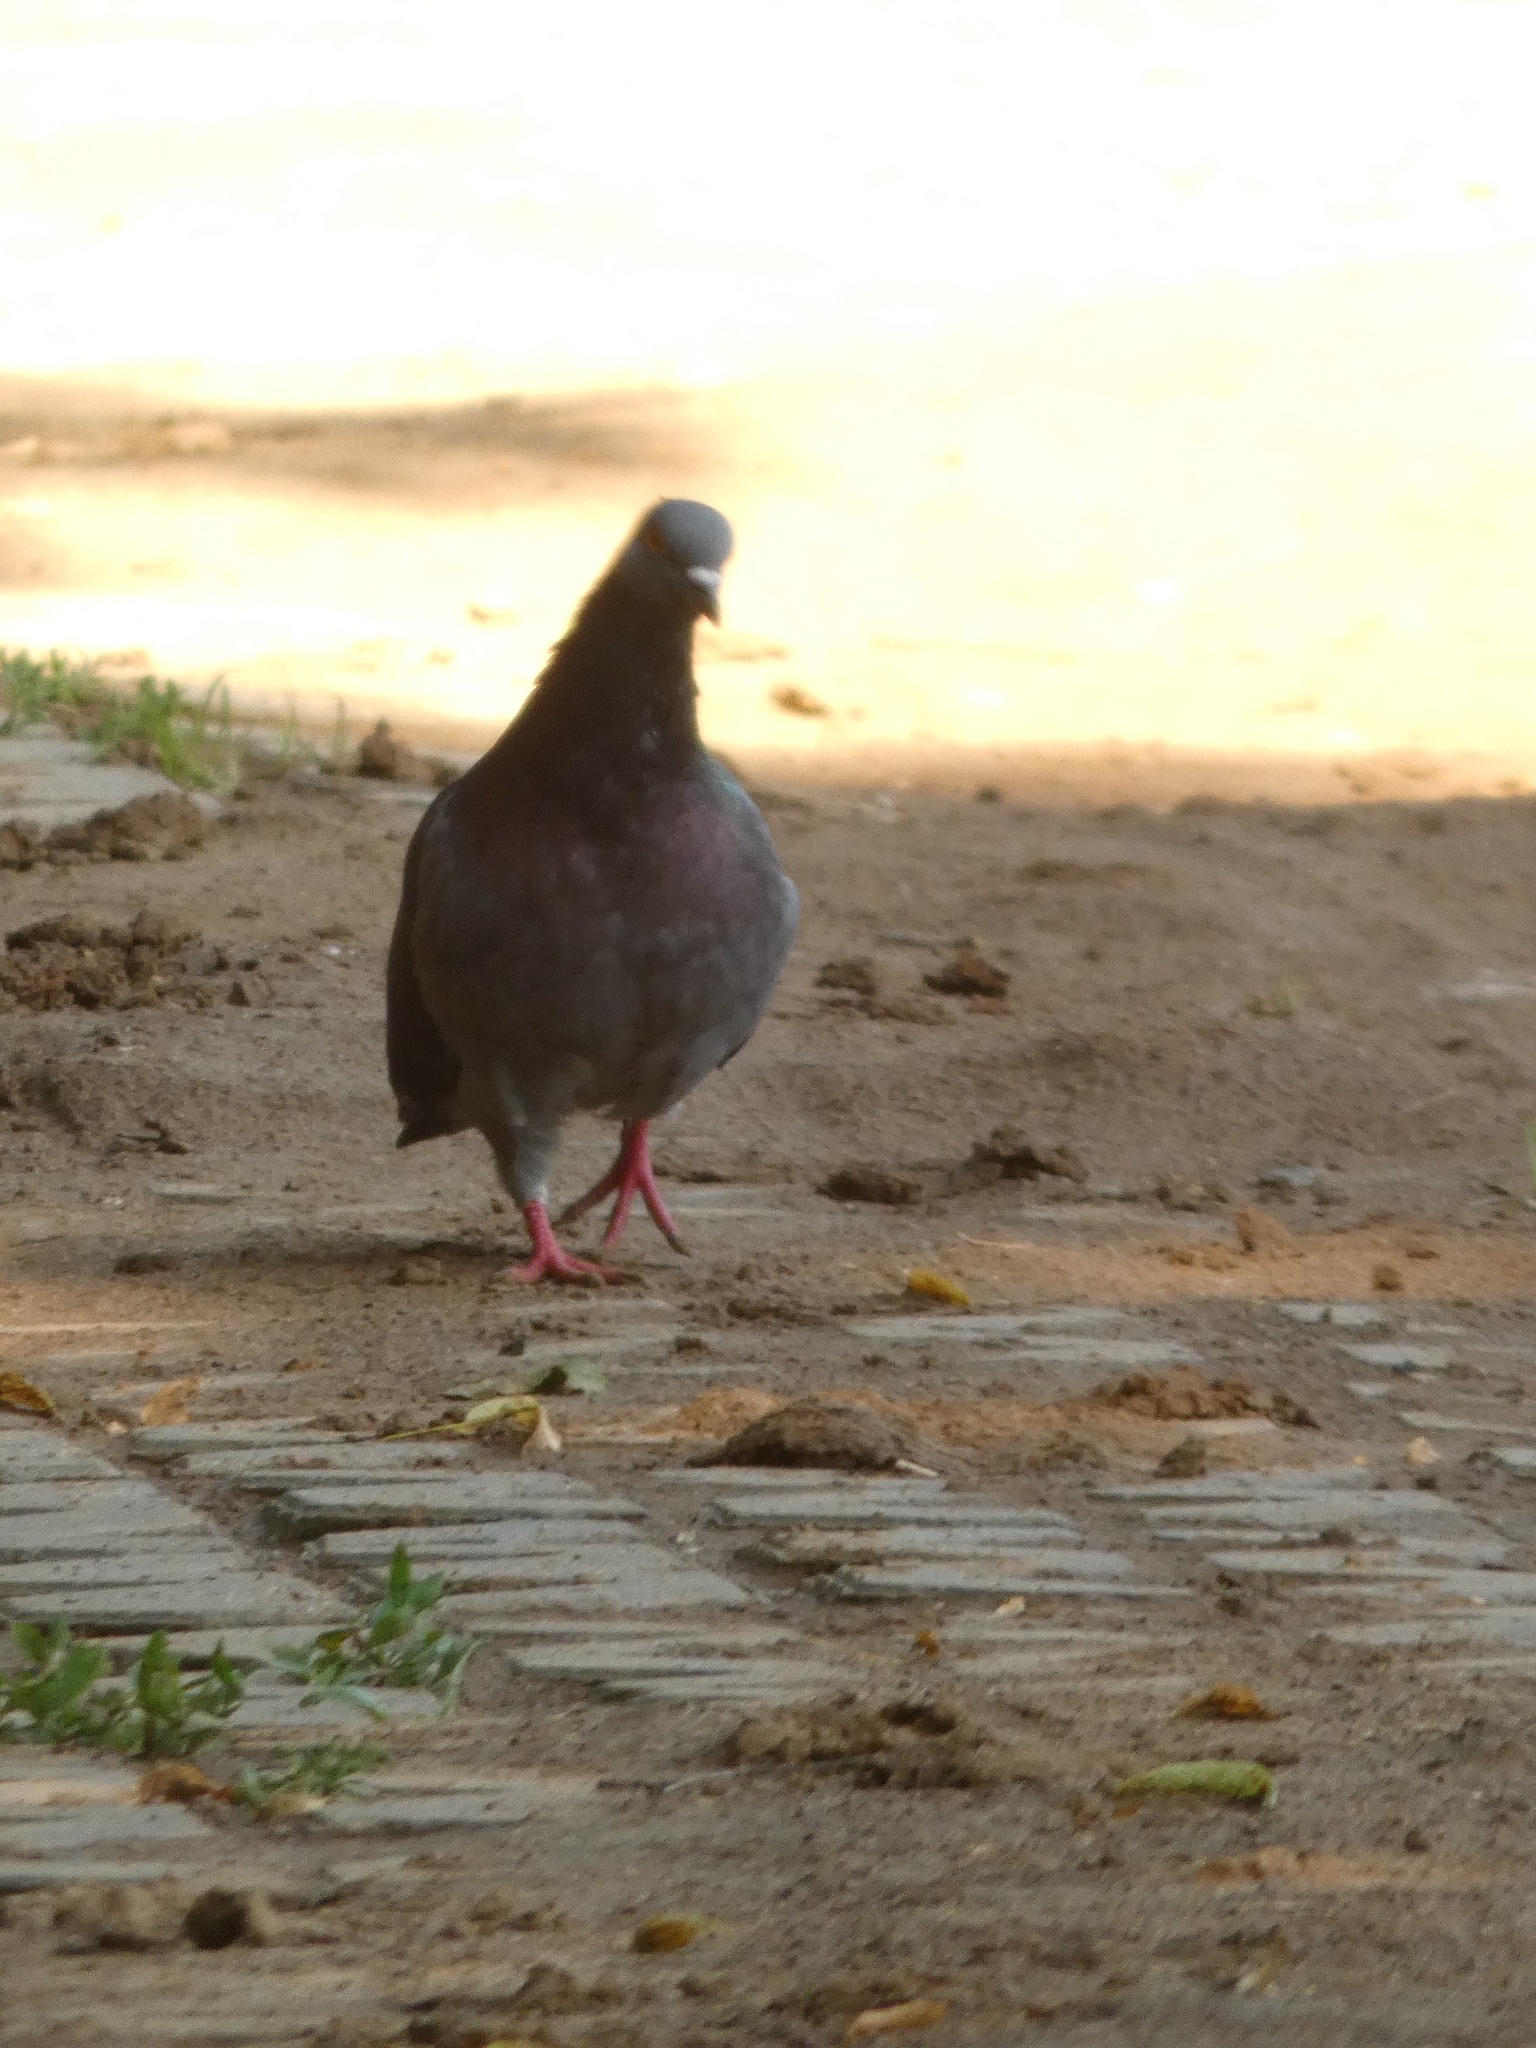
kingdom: Animalia
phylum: Chordata
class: Aves
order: Columbiformes
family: Columbidae
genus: Columba
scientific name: Columba livia
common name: Rock pigeon
